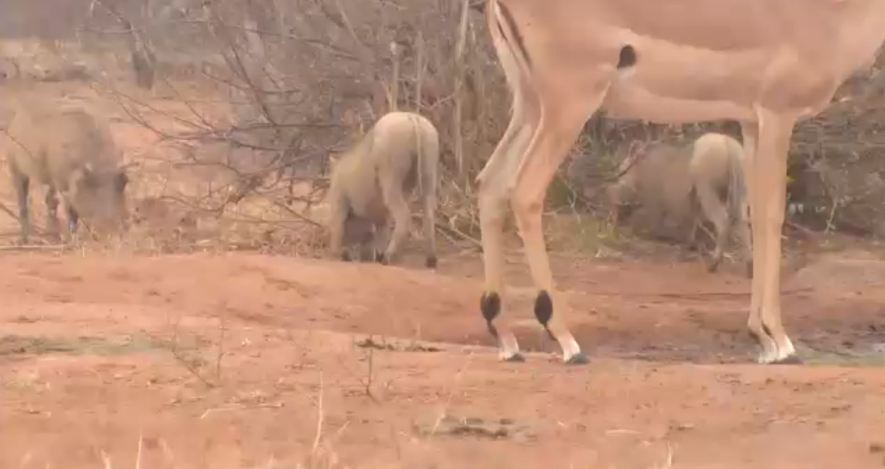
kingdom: Animalia
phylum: Chordata
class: Mammalia
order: Artiodactyla
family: Suidae
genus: Phacochoerus
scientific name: Phacochoerus africanus
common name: Common warthog
